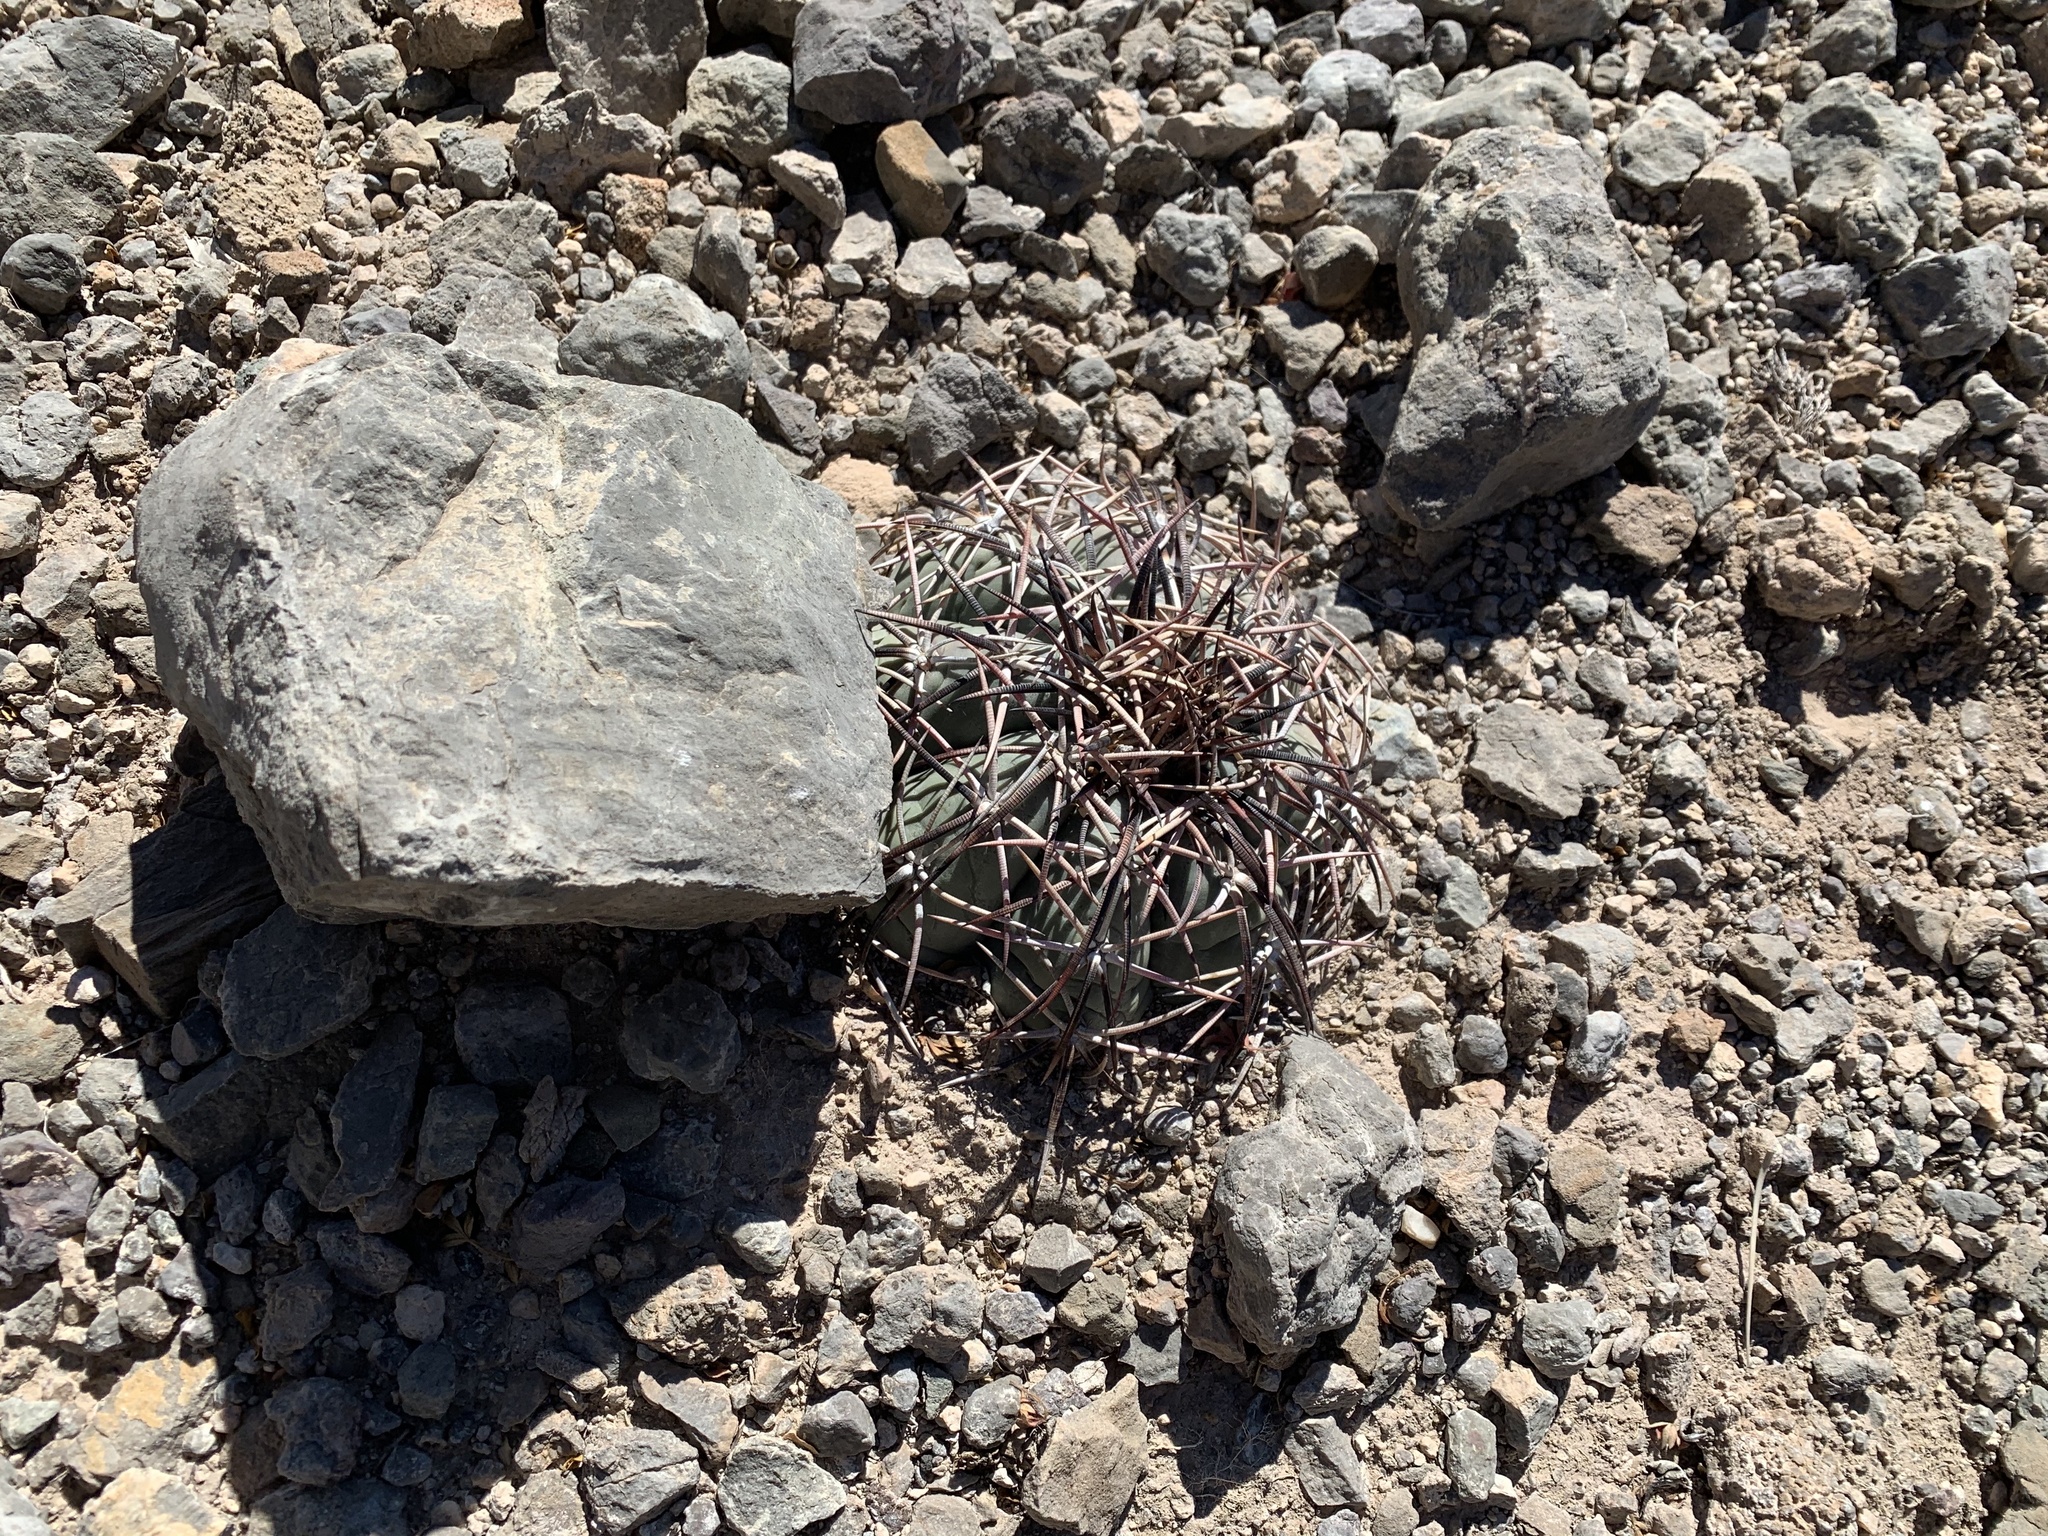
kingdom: Plantae
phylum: Tracheophyta
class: Magnoliopsida
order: Caryophyllales
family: Cactaceae
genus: Echinocactus
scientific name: Echinocactus horizonthalonius
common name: Devilshead
